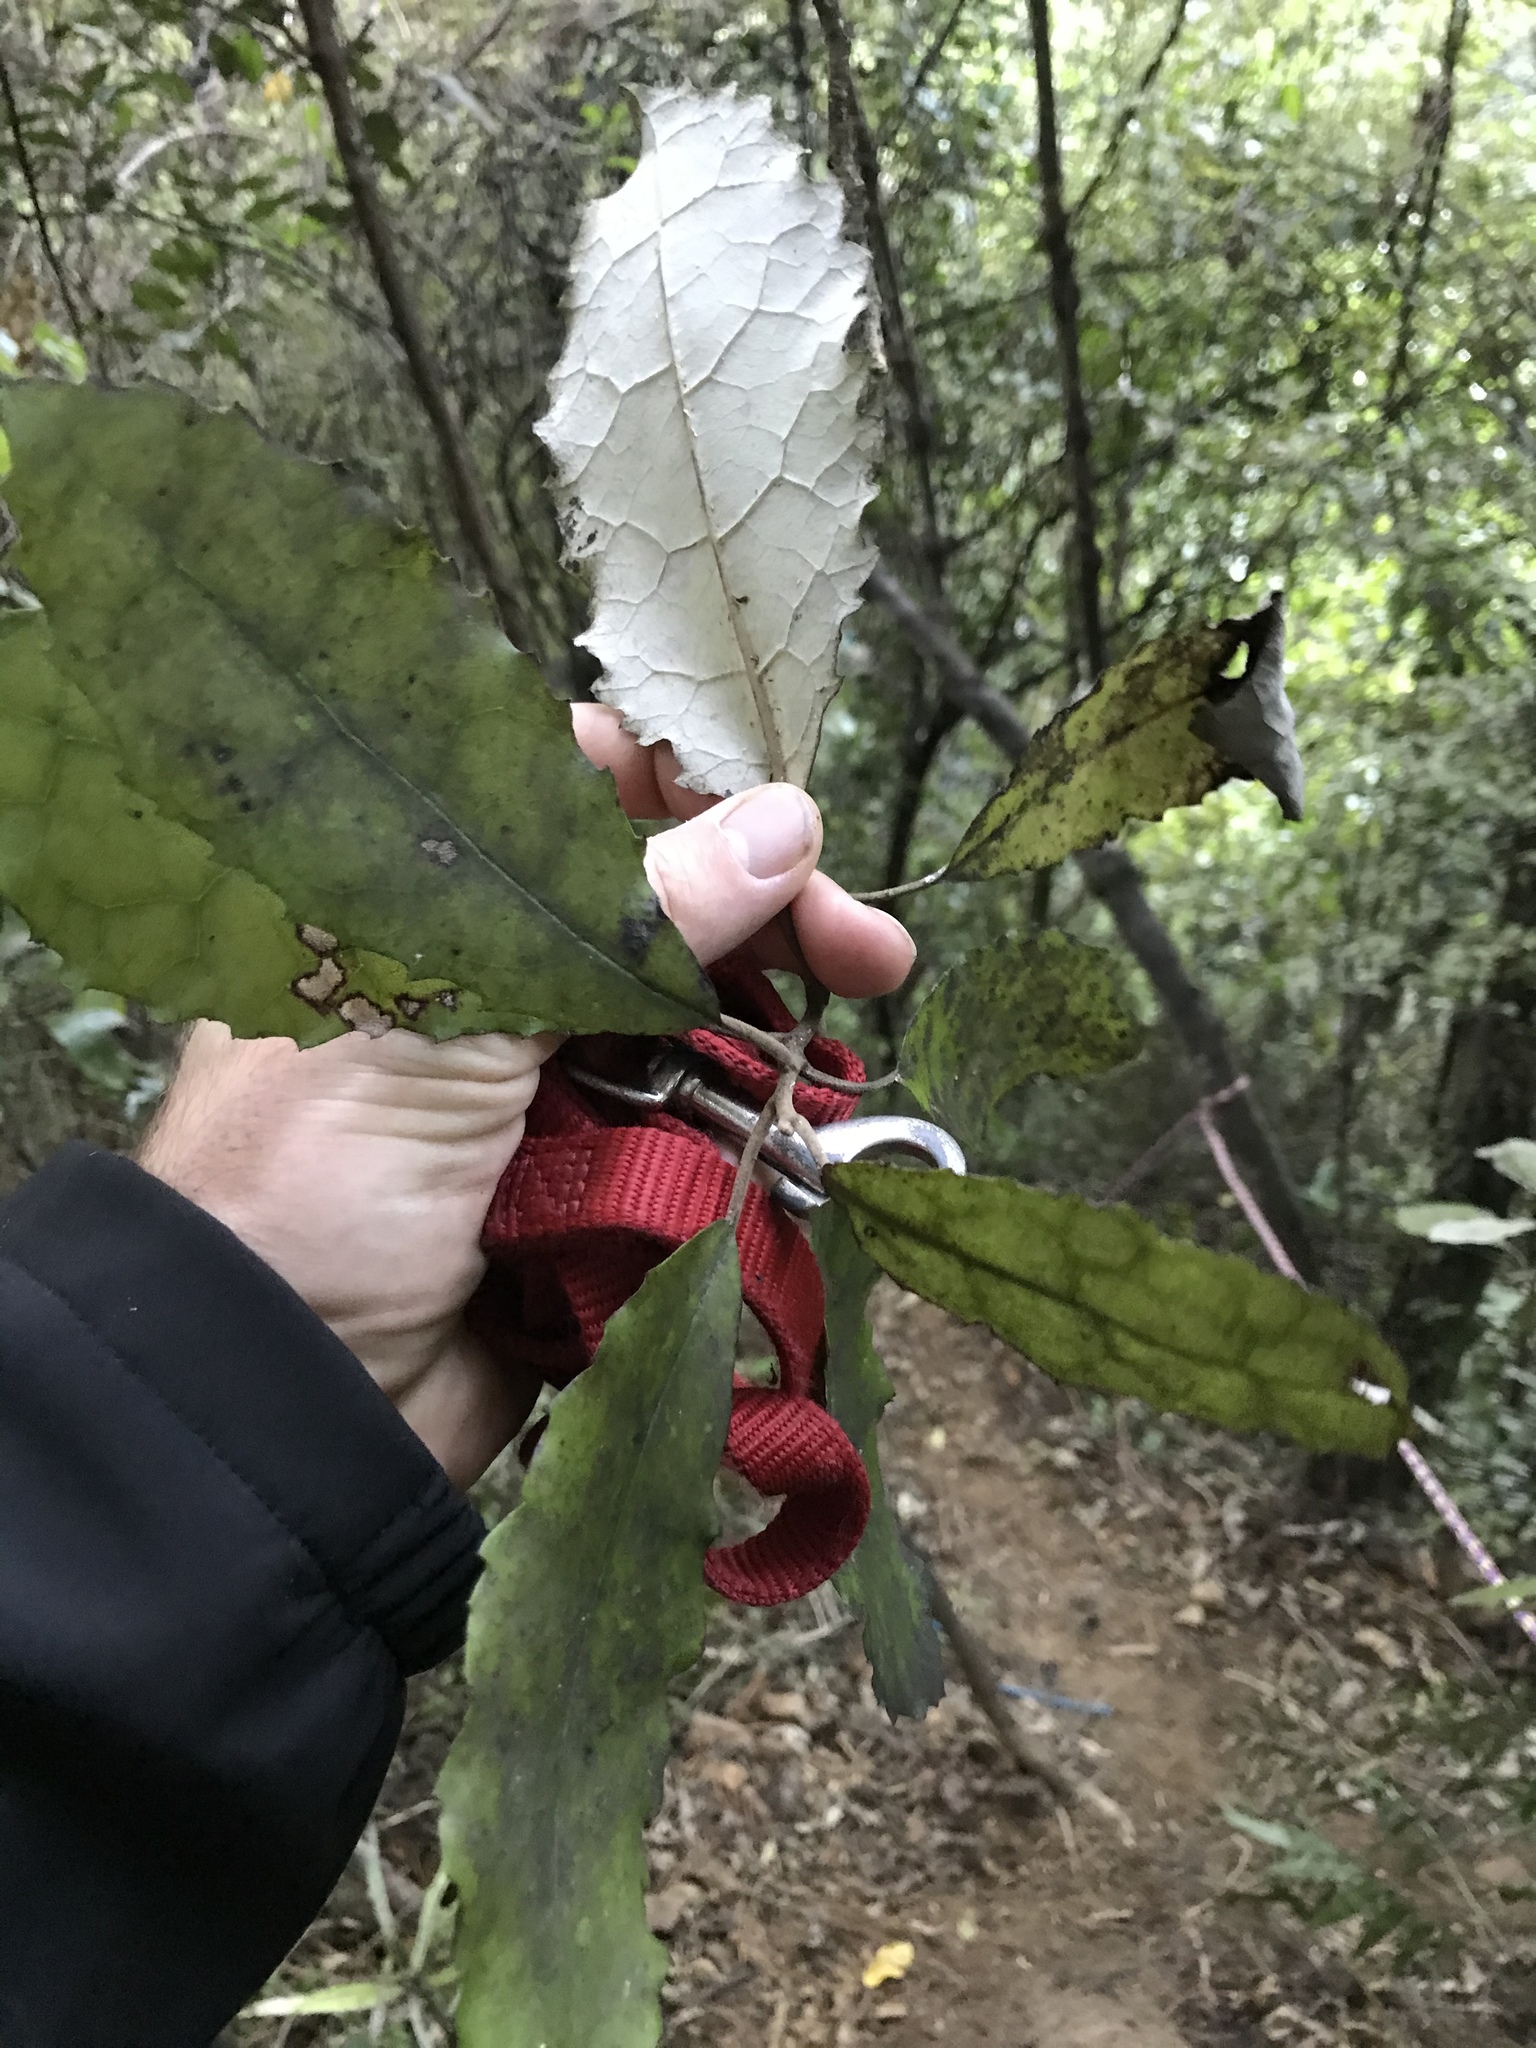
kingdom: Plantae
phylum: Tracheophyta
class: Magnoliopsida
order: Asterales
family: Asteraceae
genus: Olearia
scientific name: Olearia rani
